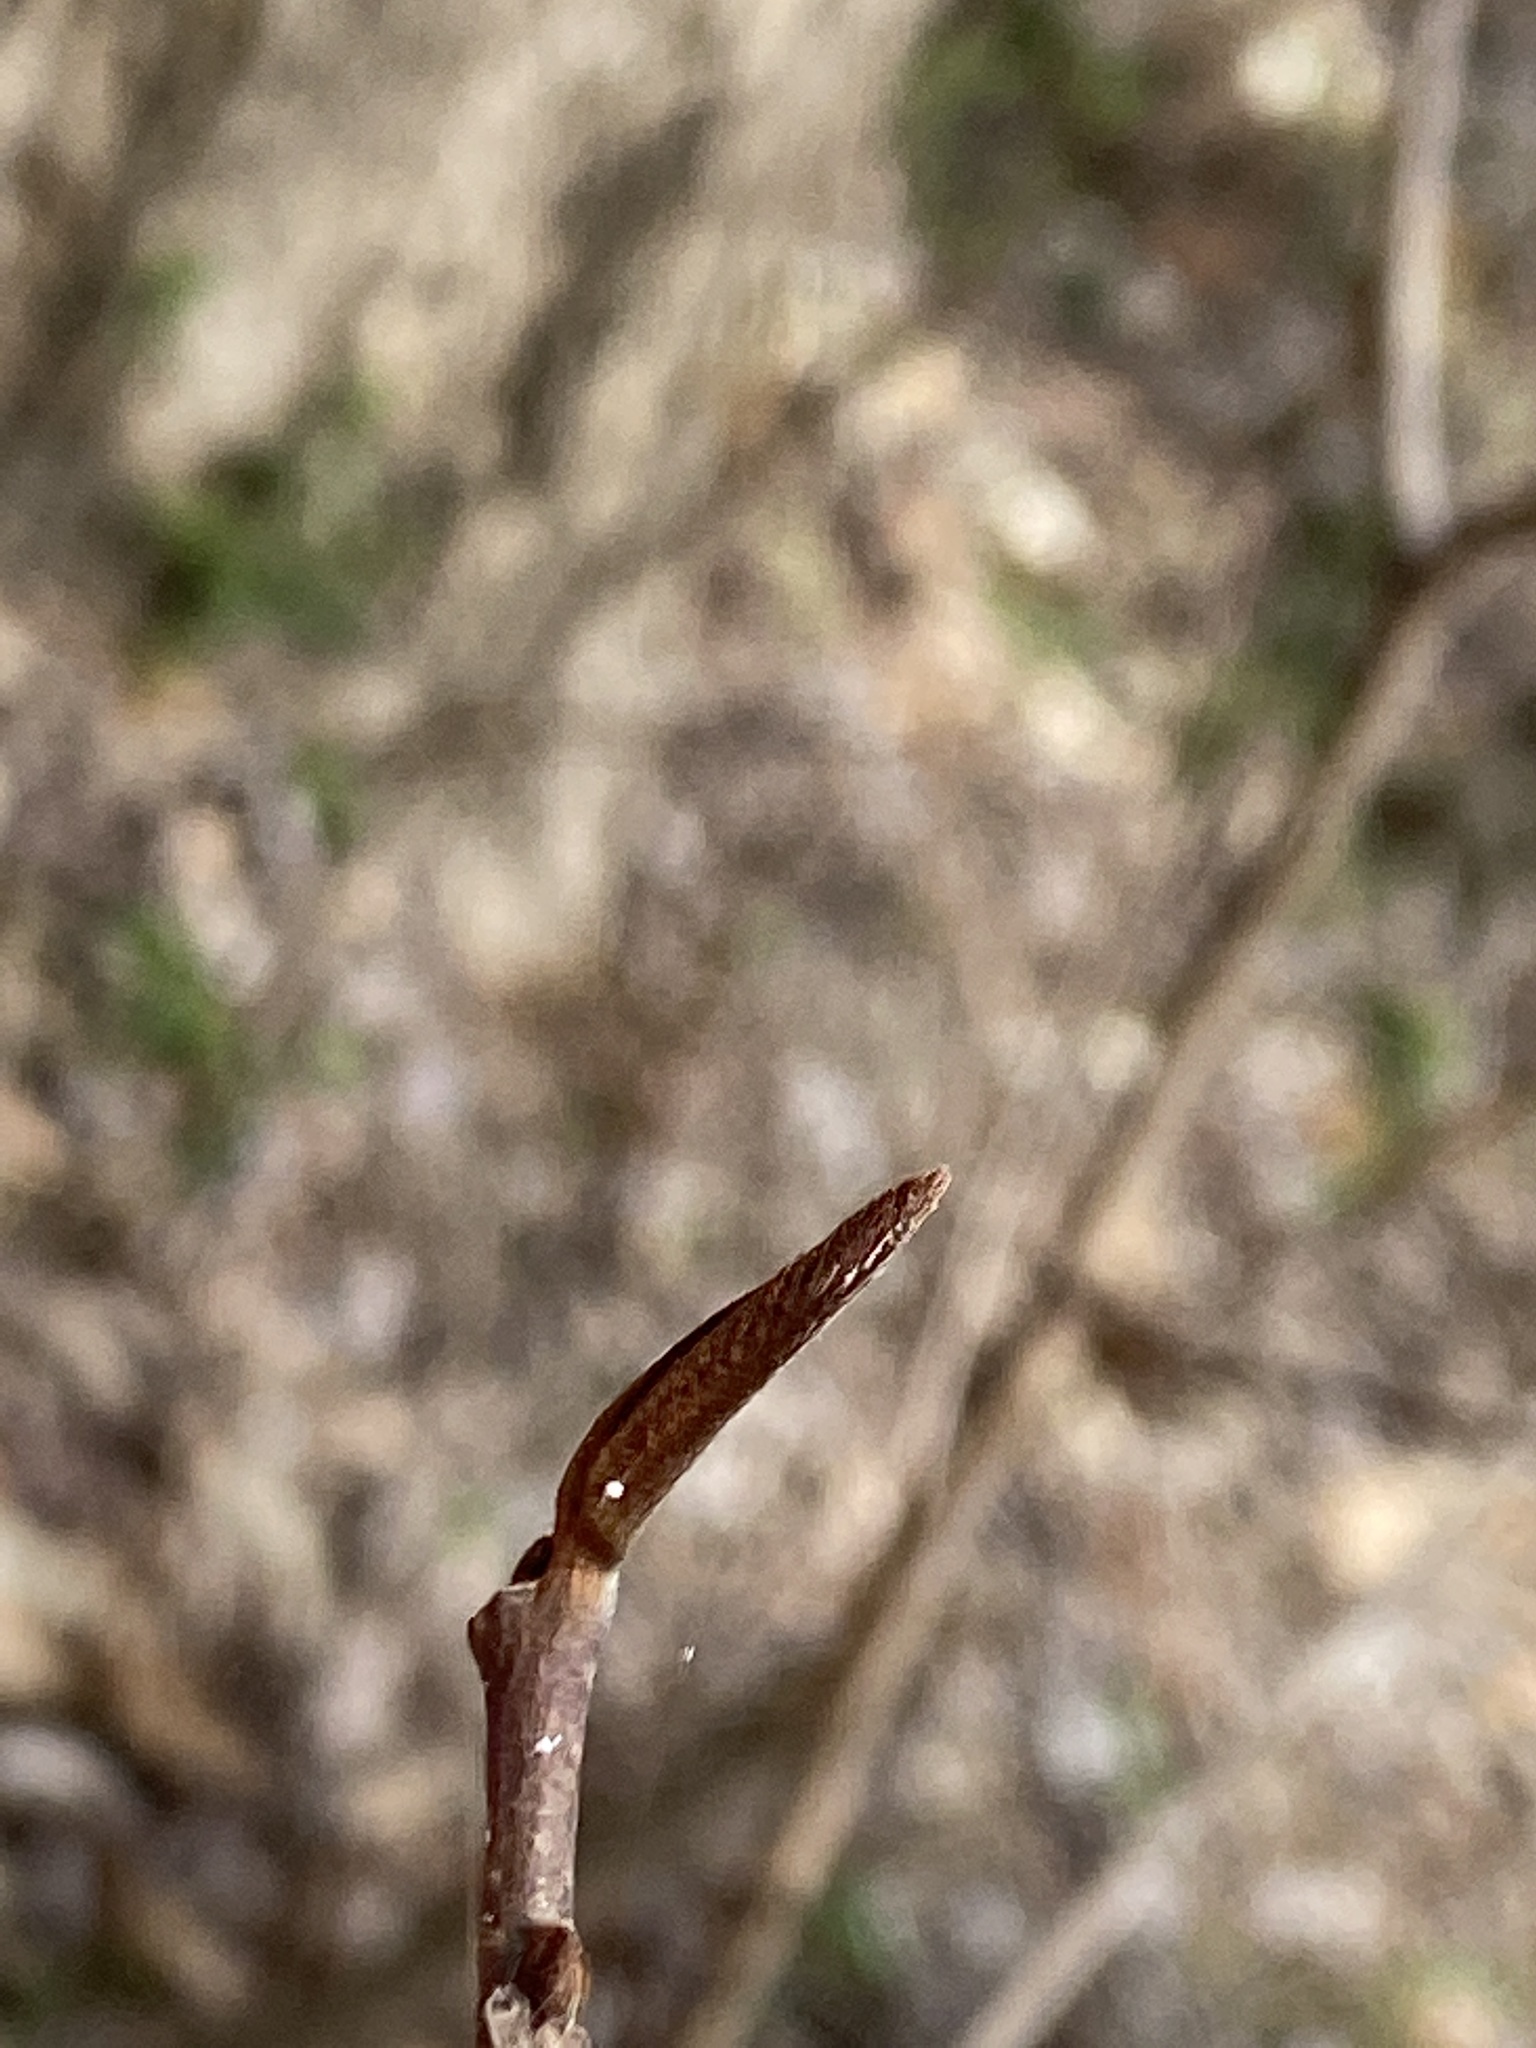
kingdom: Plantae
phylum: Tracheophyta
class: Magnoliopsida
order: Magnoliales
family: Annonaceae
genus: Asimina
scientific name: Asimina triloba
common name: Dog-banana
